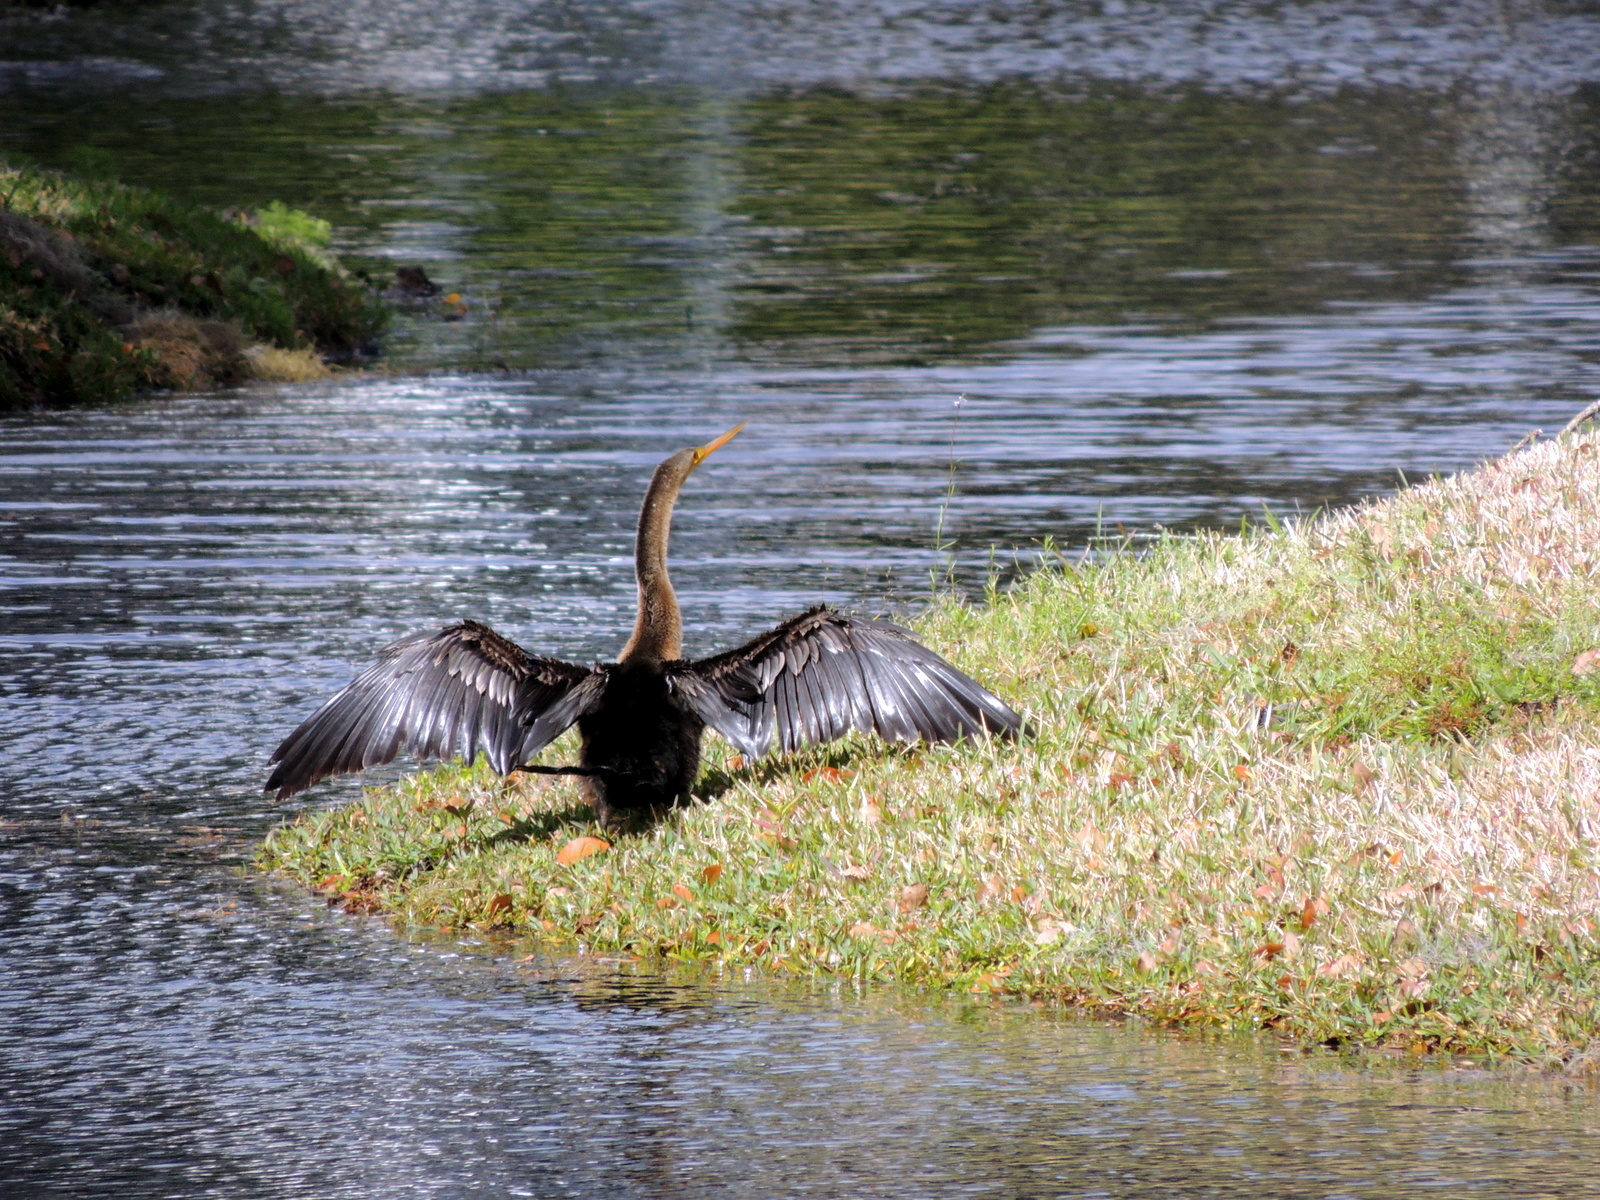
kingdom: Animalia
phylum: Chordata
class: Aves
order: Suliformes
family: Anhingidae
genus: Anhinga
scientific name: Anhinga anhinga
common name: Anhinga
